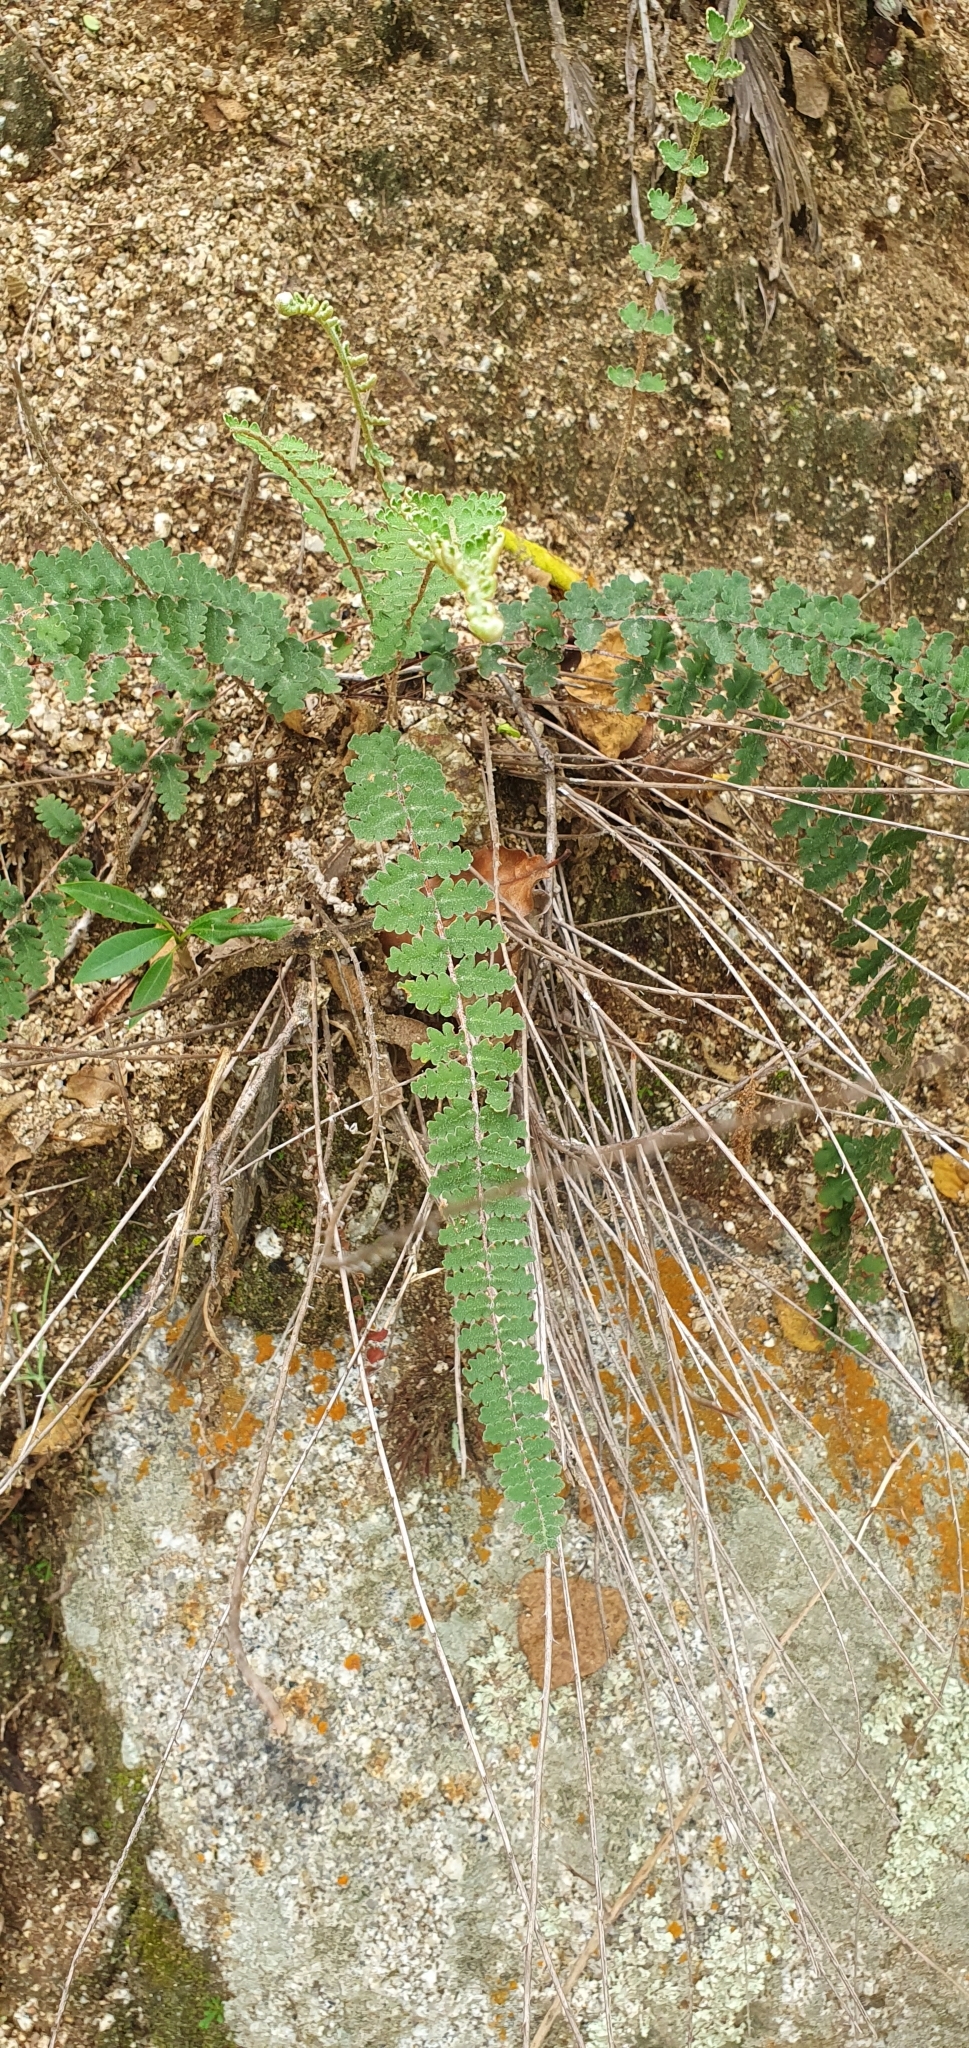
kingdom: Plantae
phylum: Tracheophyta
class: Polypodiopsida
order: Polypodiales
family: Pteridaceae
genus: Astrolepis
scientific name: Astrolepis sinuata
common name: Wavy scaly cloakfern
